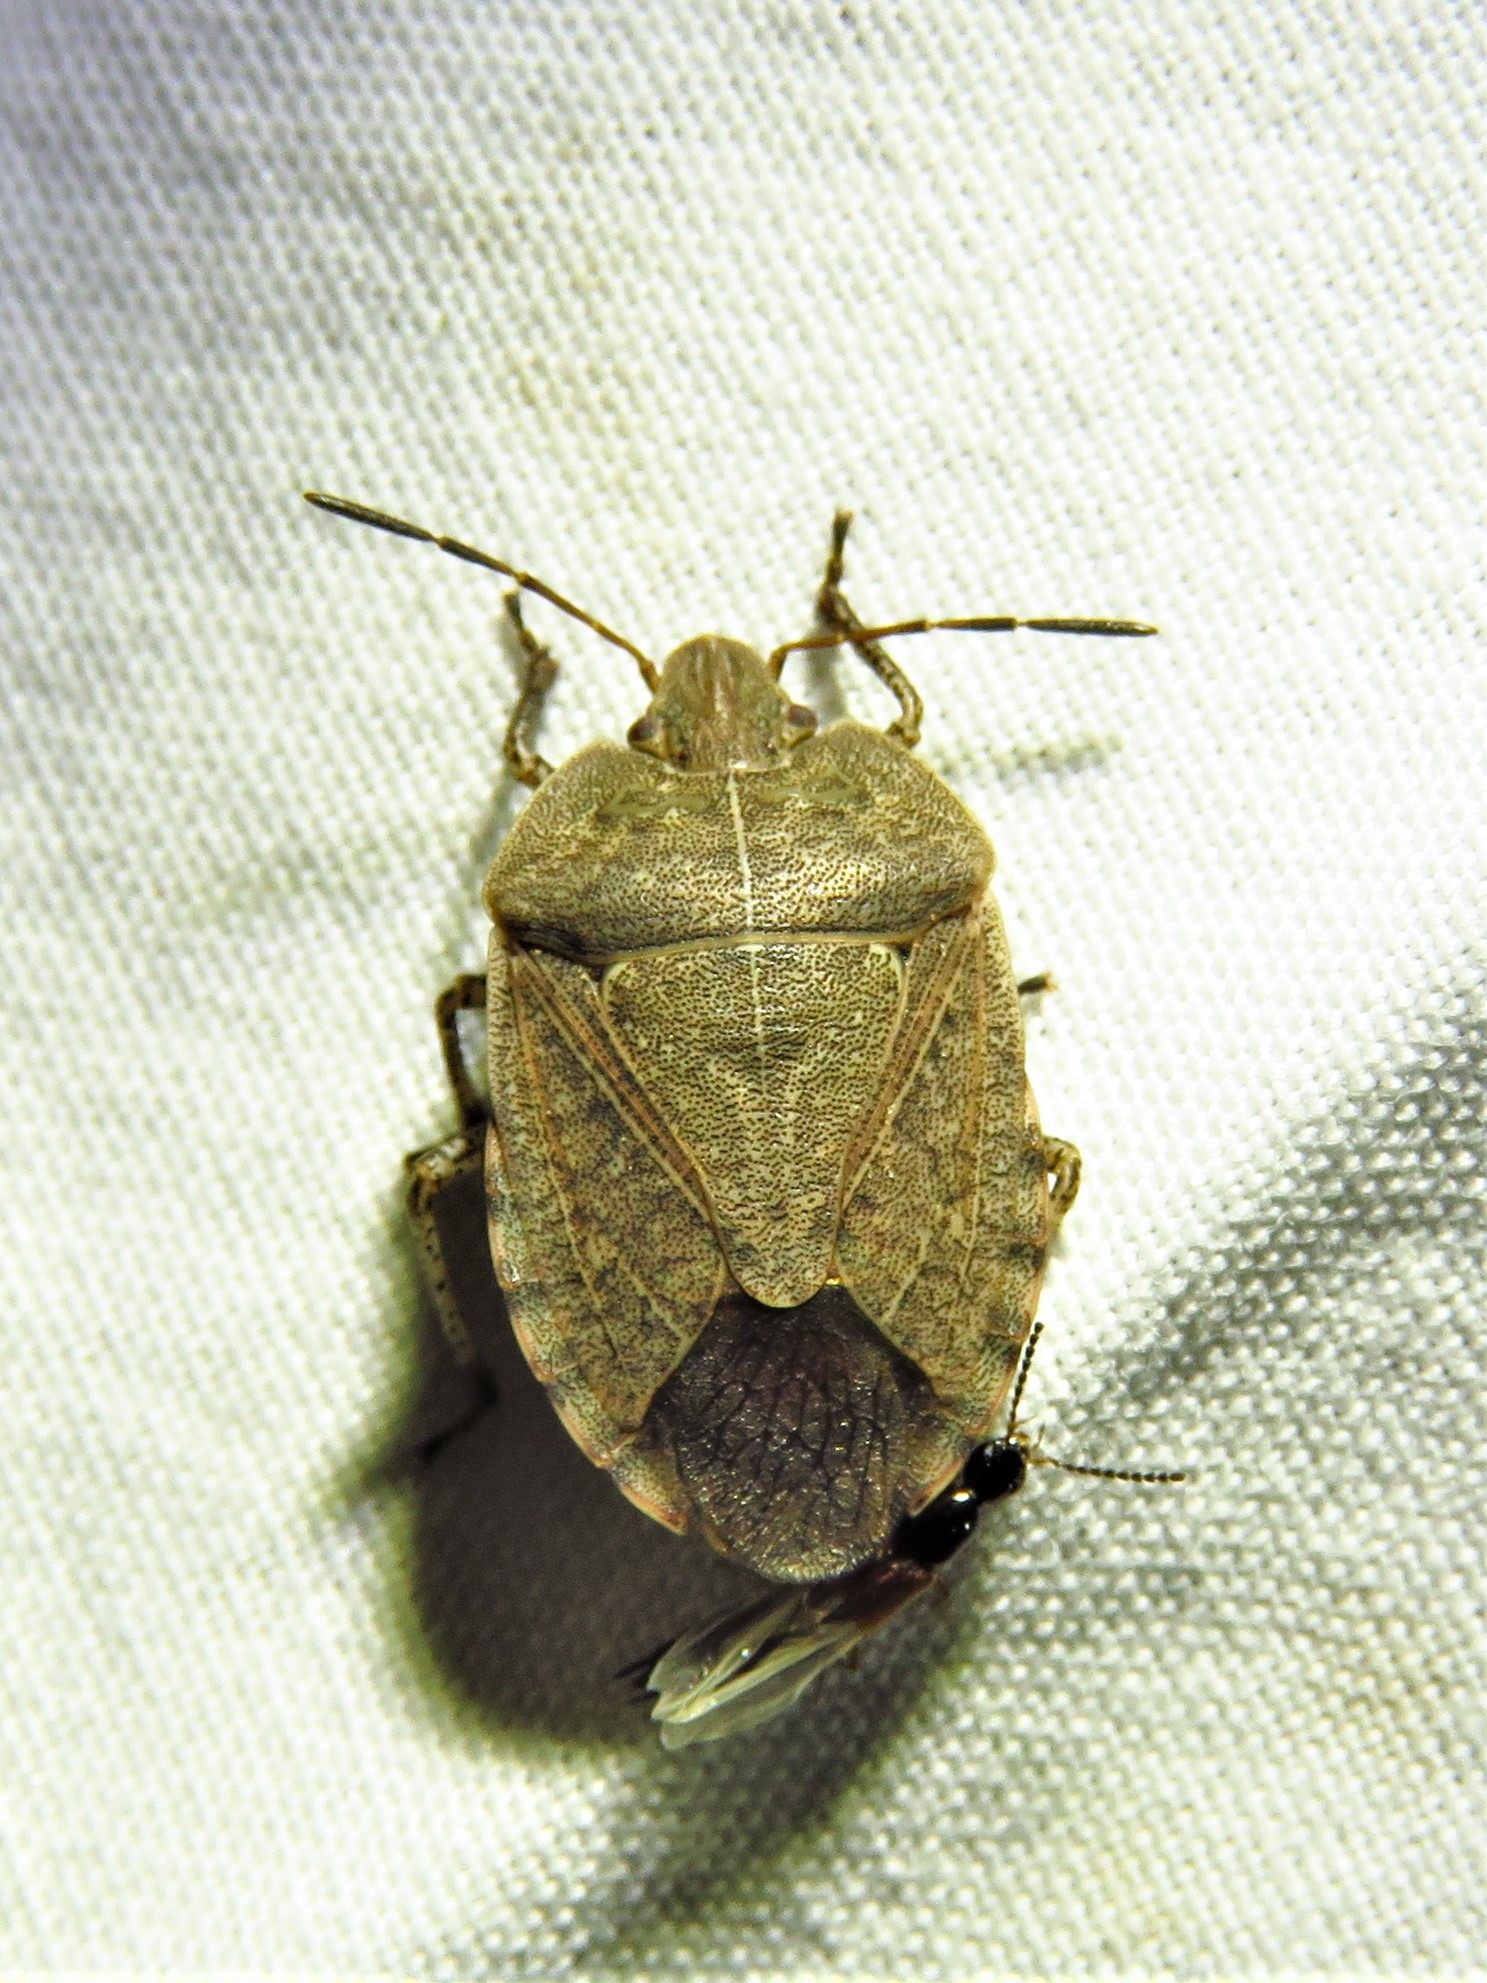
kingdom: Animalia
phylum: Arthropoda
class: Insecta
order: Hemiptera
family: Pentatomidae
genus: Menecles
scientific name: Menecles insertus
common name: Elf shoe stink bug
